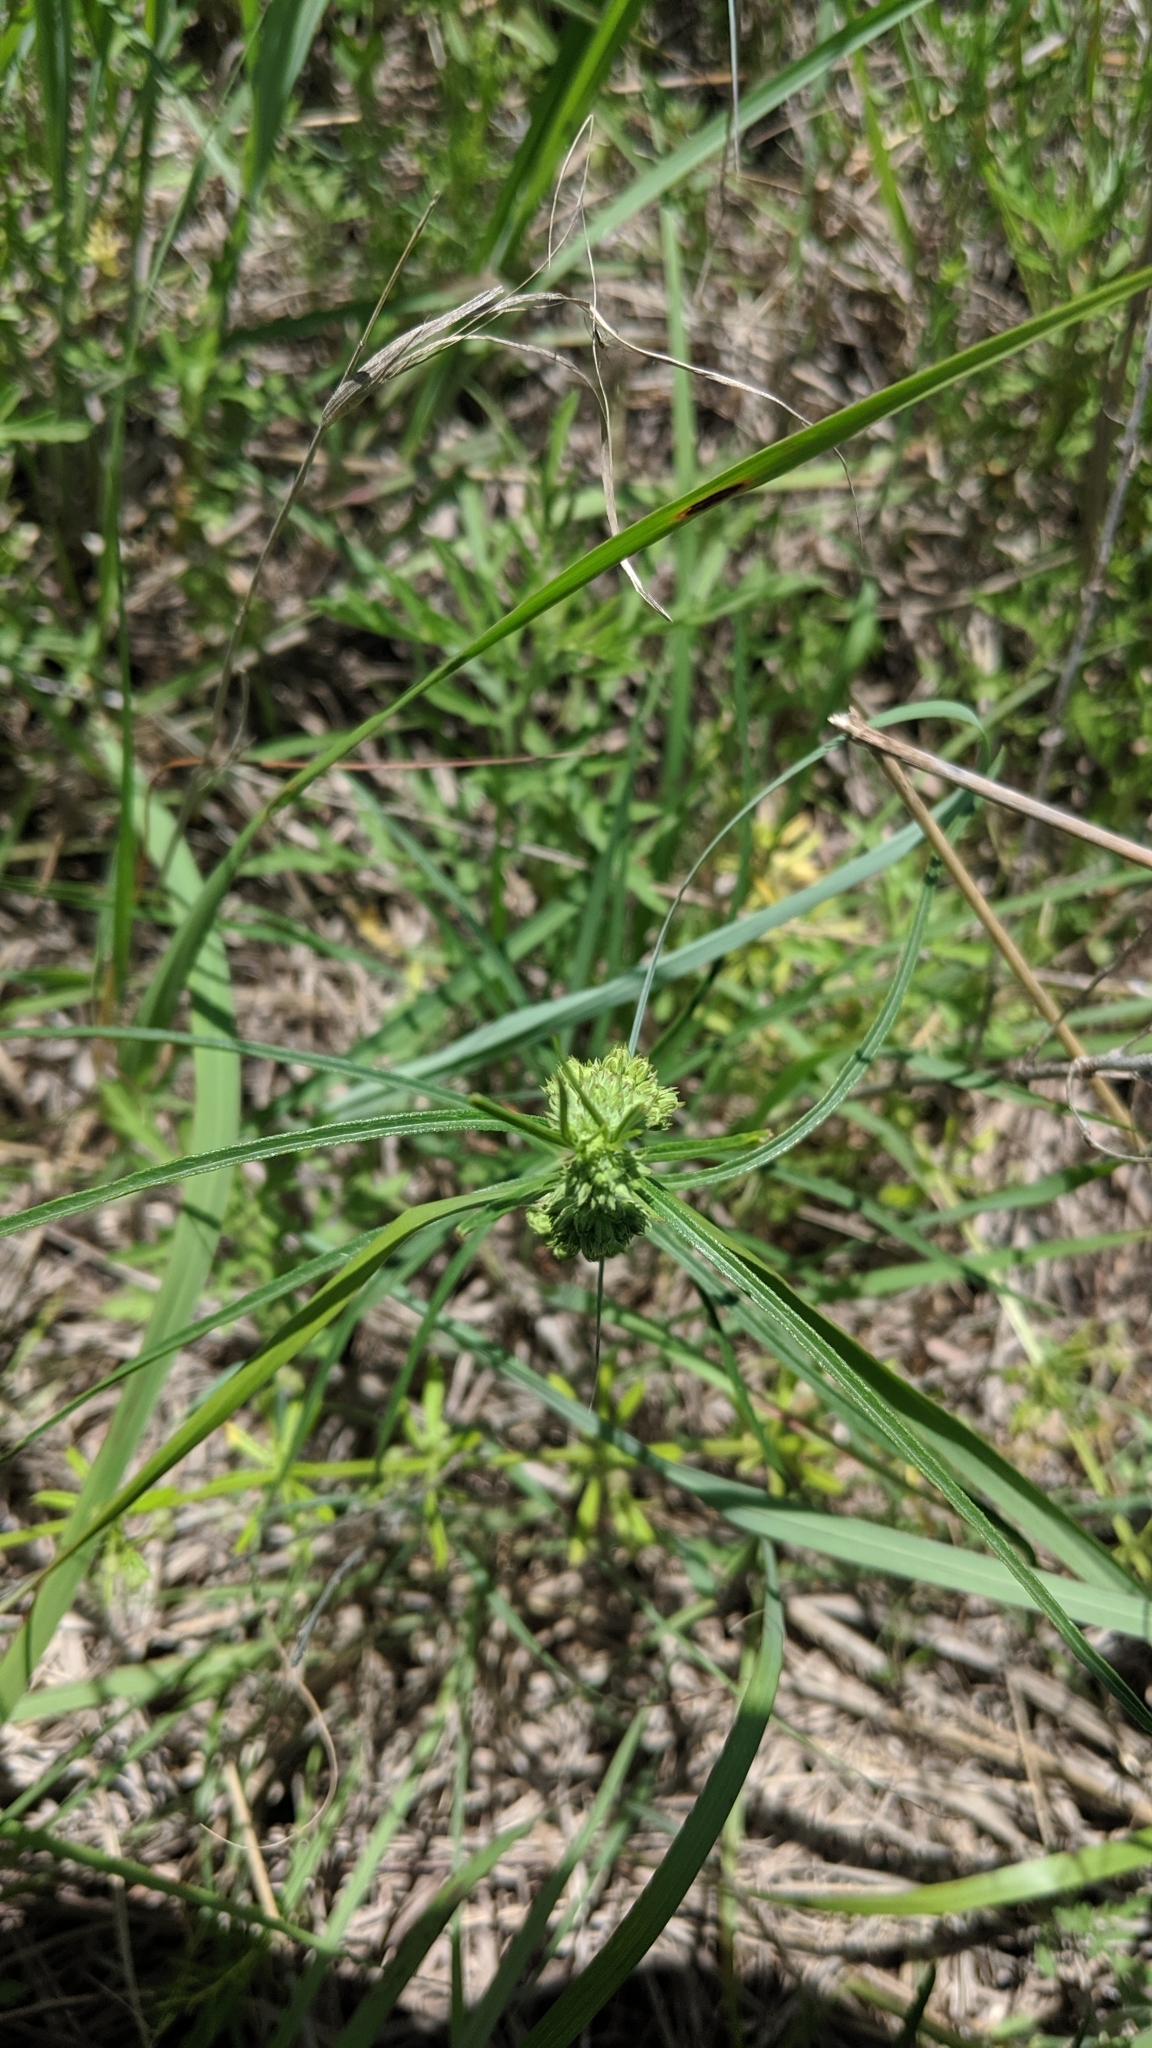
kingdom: Plantae
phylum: Tracheophyta
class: Magnoliopsida
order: Gentianales
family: Apocynaceae
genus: Asclepias
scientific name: Asclepias stenophylla
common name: Narrow-leaf milkweed
